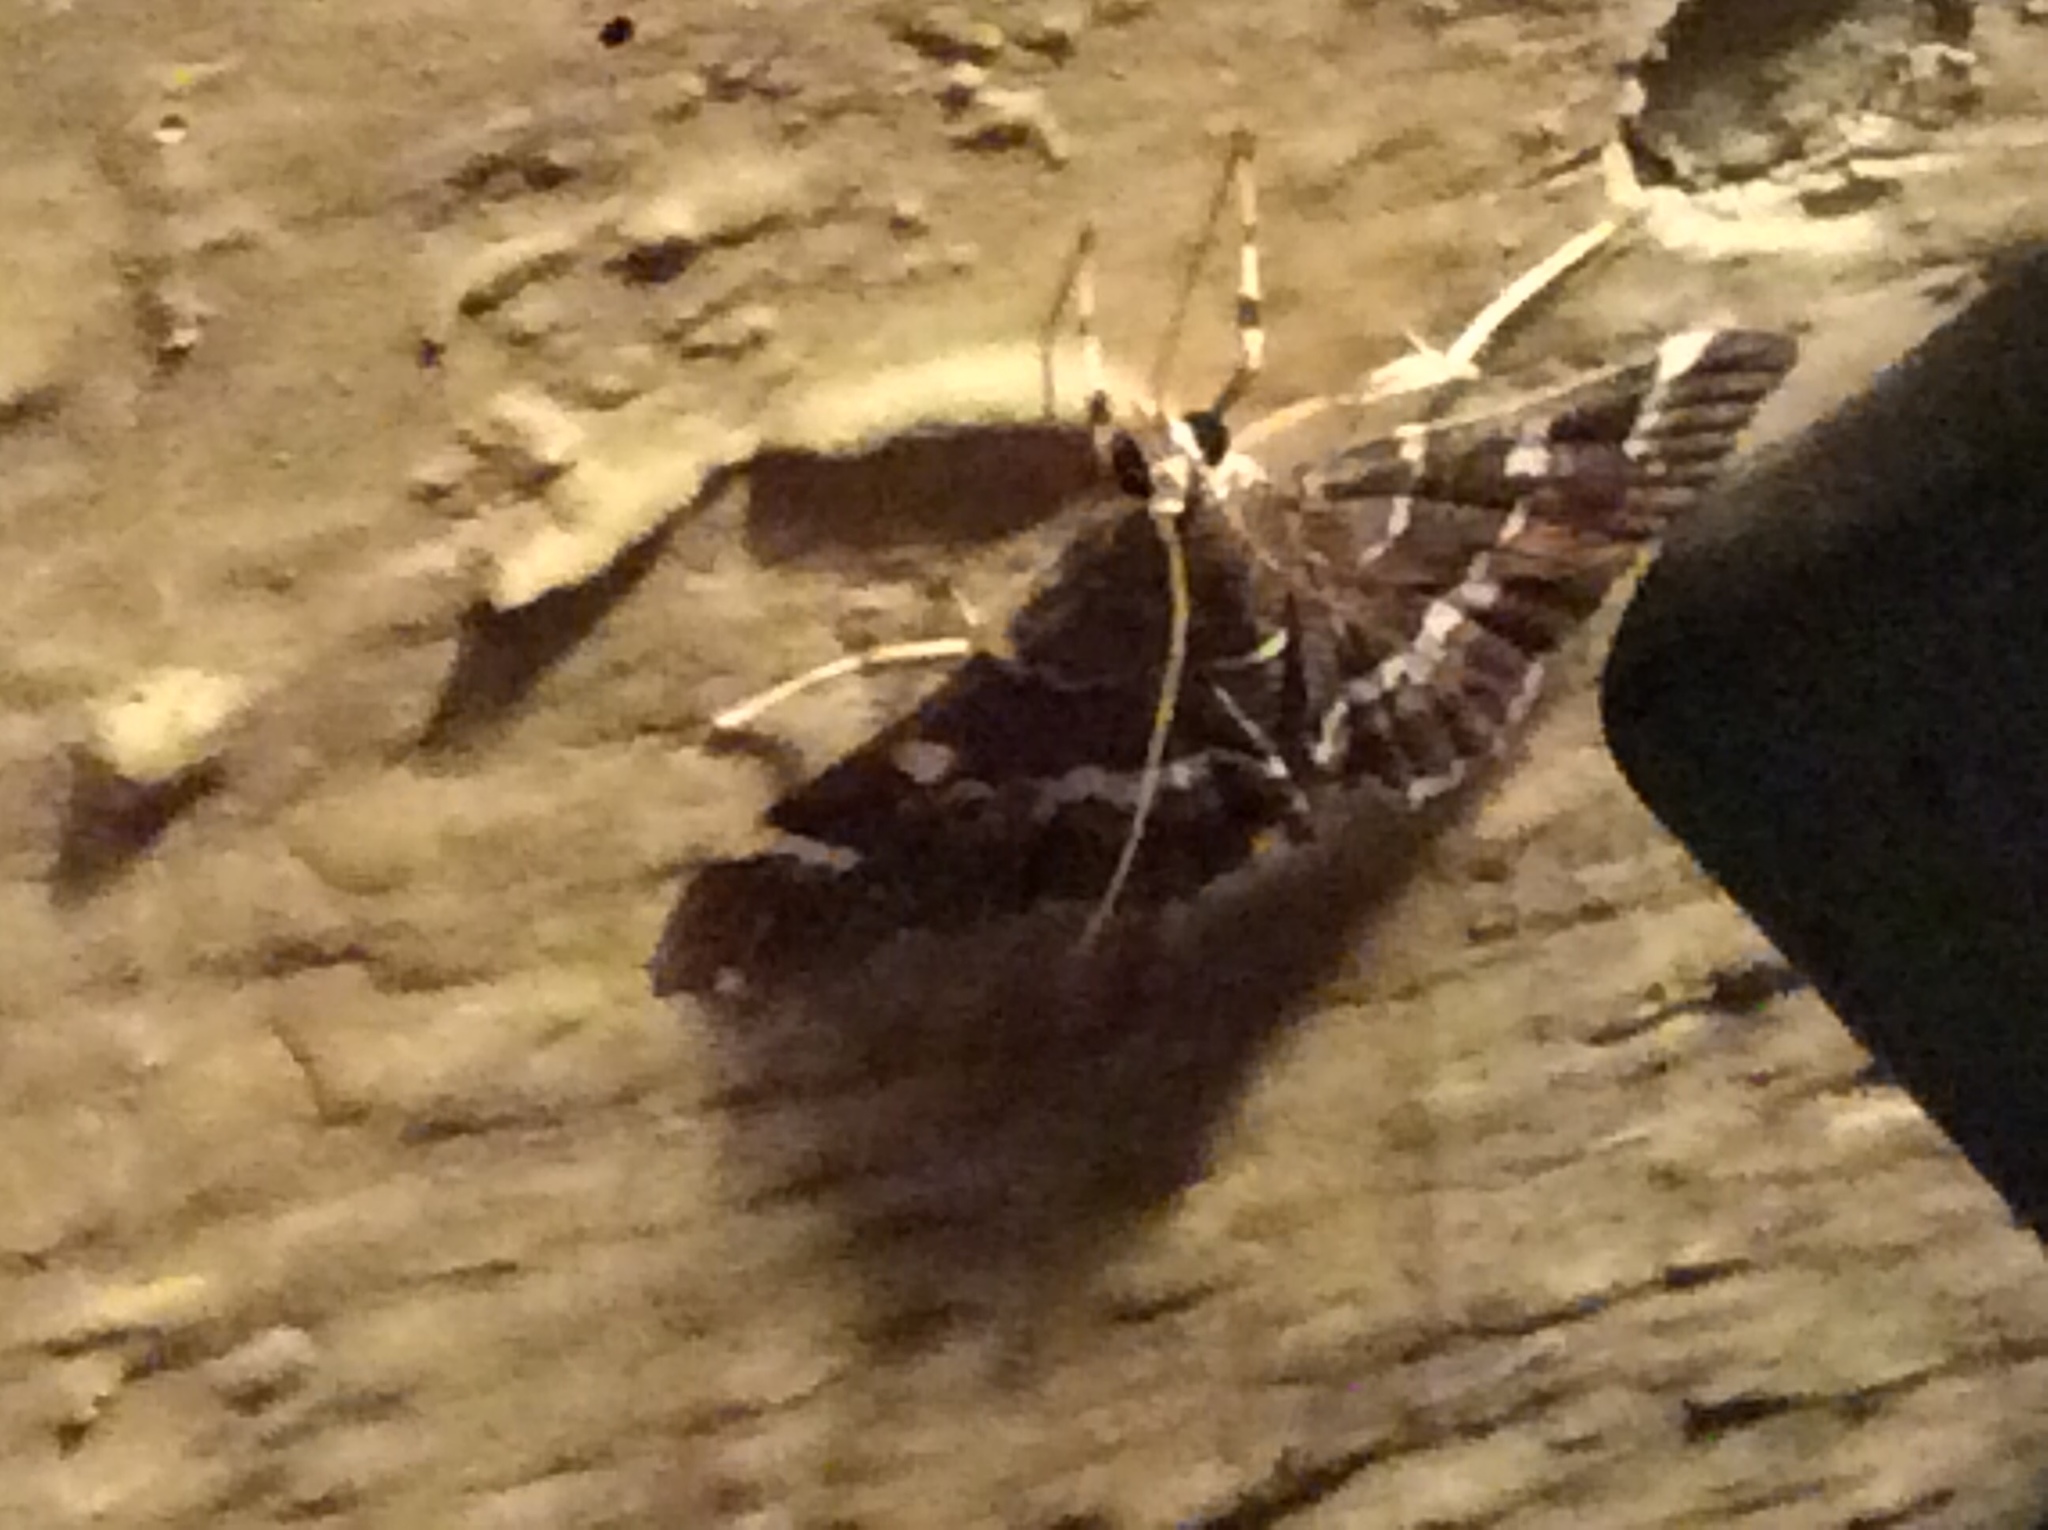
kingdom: Animalia
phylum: Arthropoda
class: Insecta
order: Lepidoptera
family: Crambidae
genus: Hymenia
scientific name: Hymenia perspectalis
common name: Spotted beet webworm
